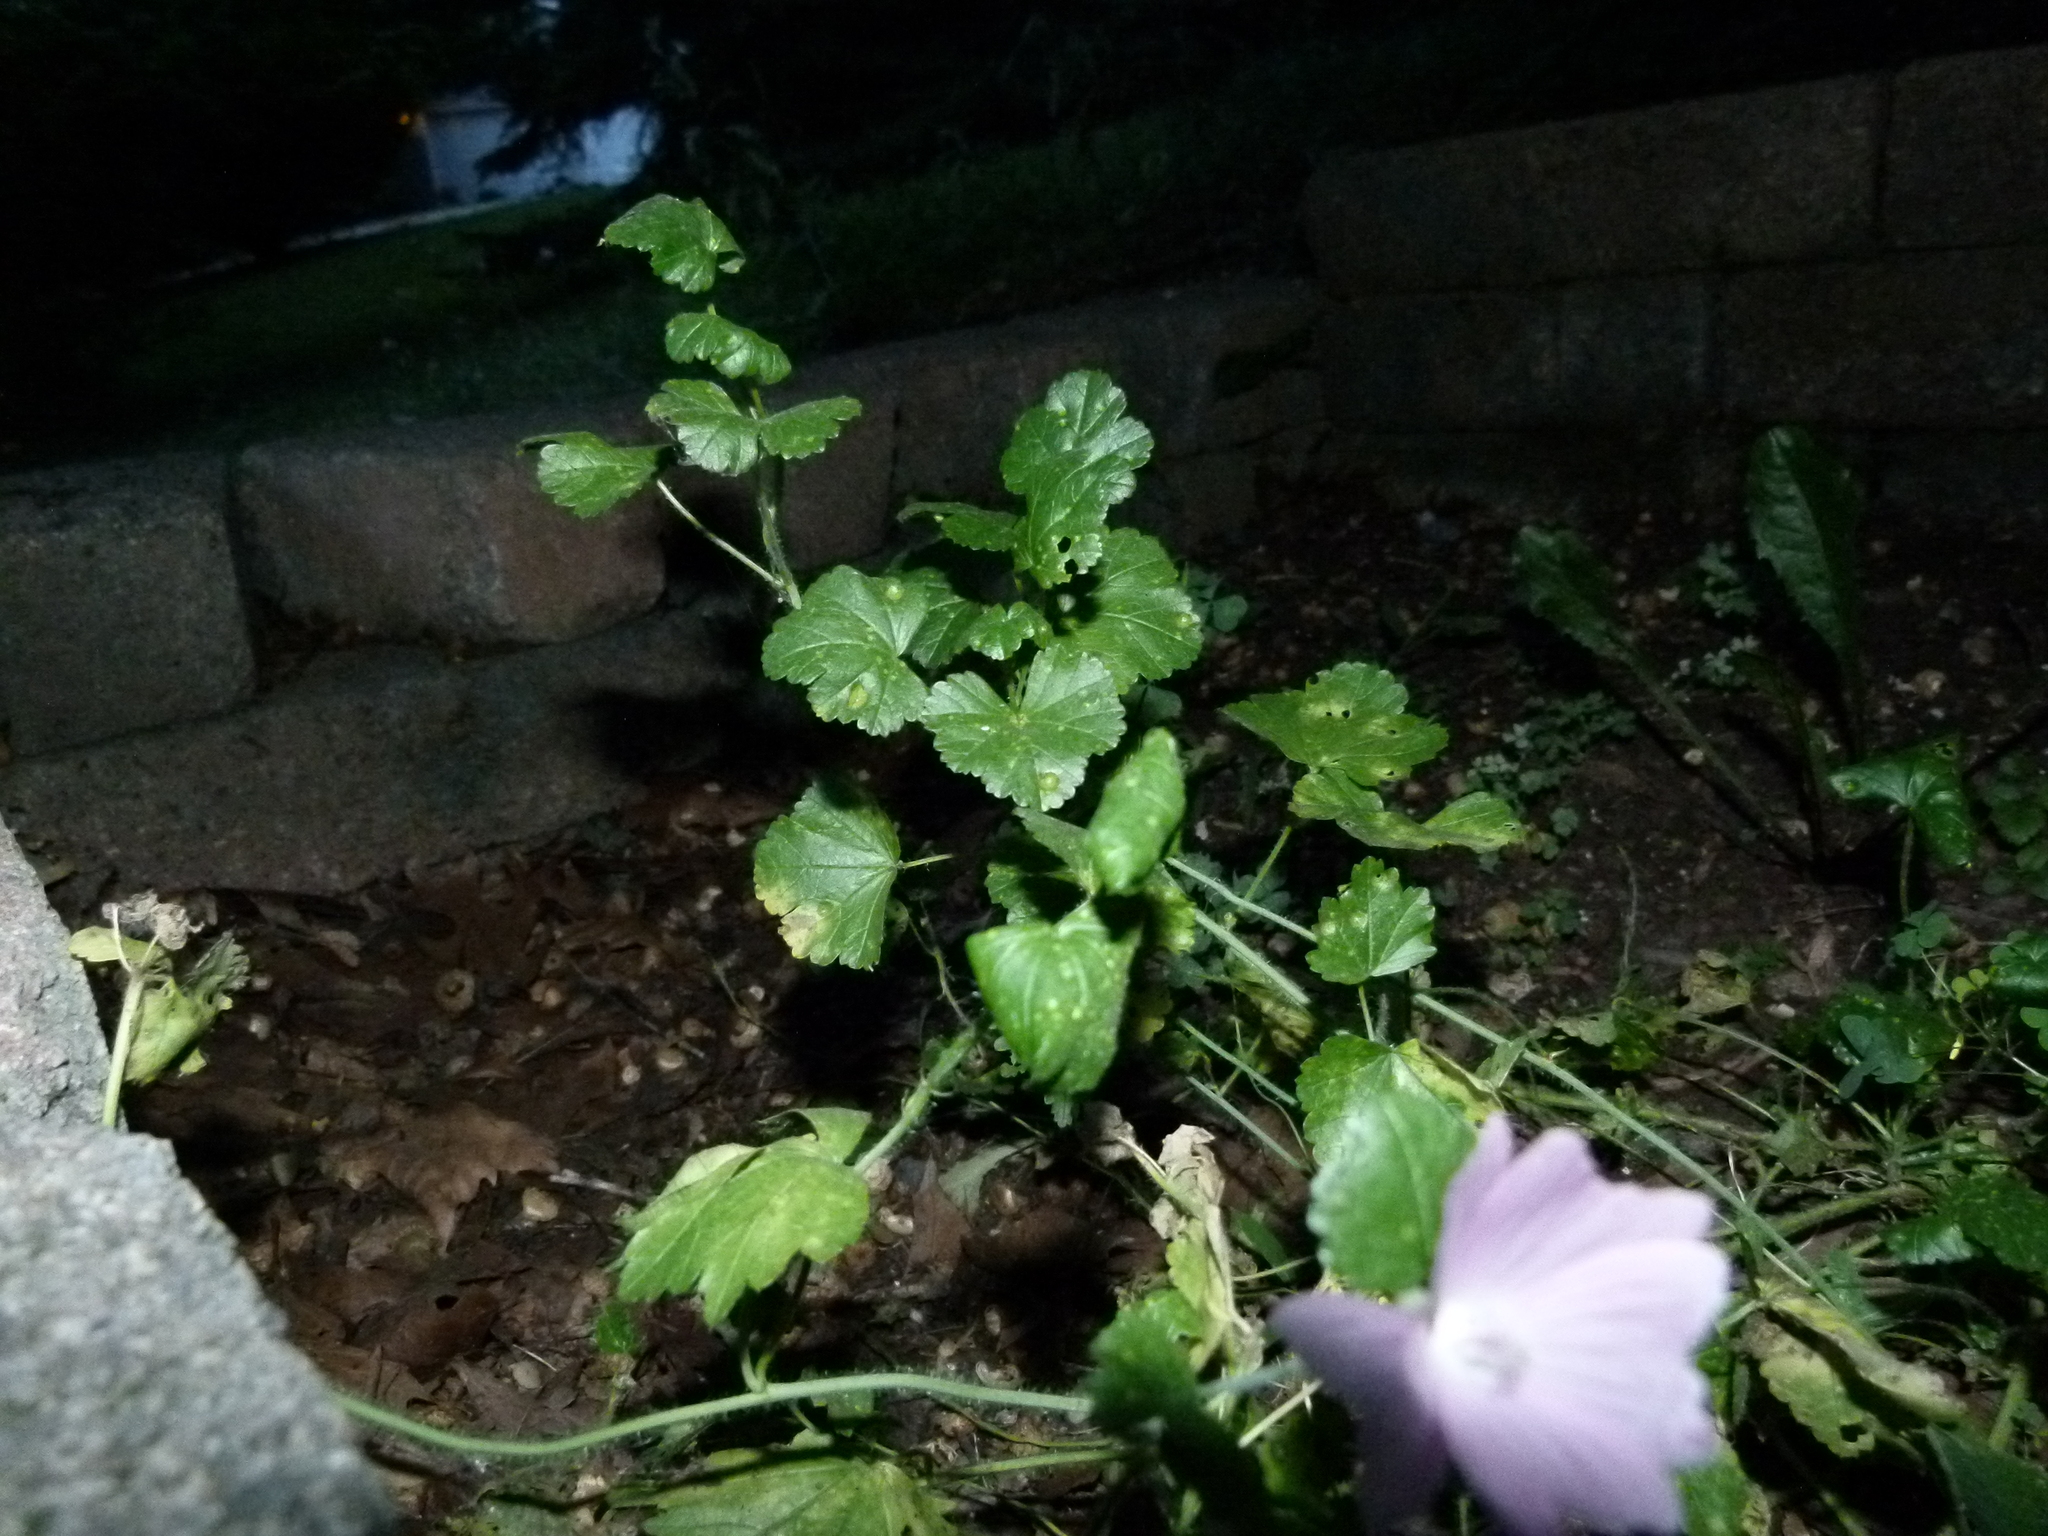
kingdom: Plantae
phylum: Tracheophyta
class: Magnoliopsida
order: Malvales
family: Malvaceae
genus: Malva
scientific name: Malva neglecta
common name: Common mallow
